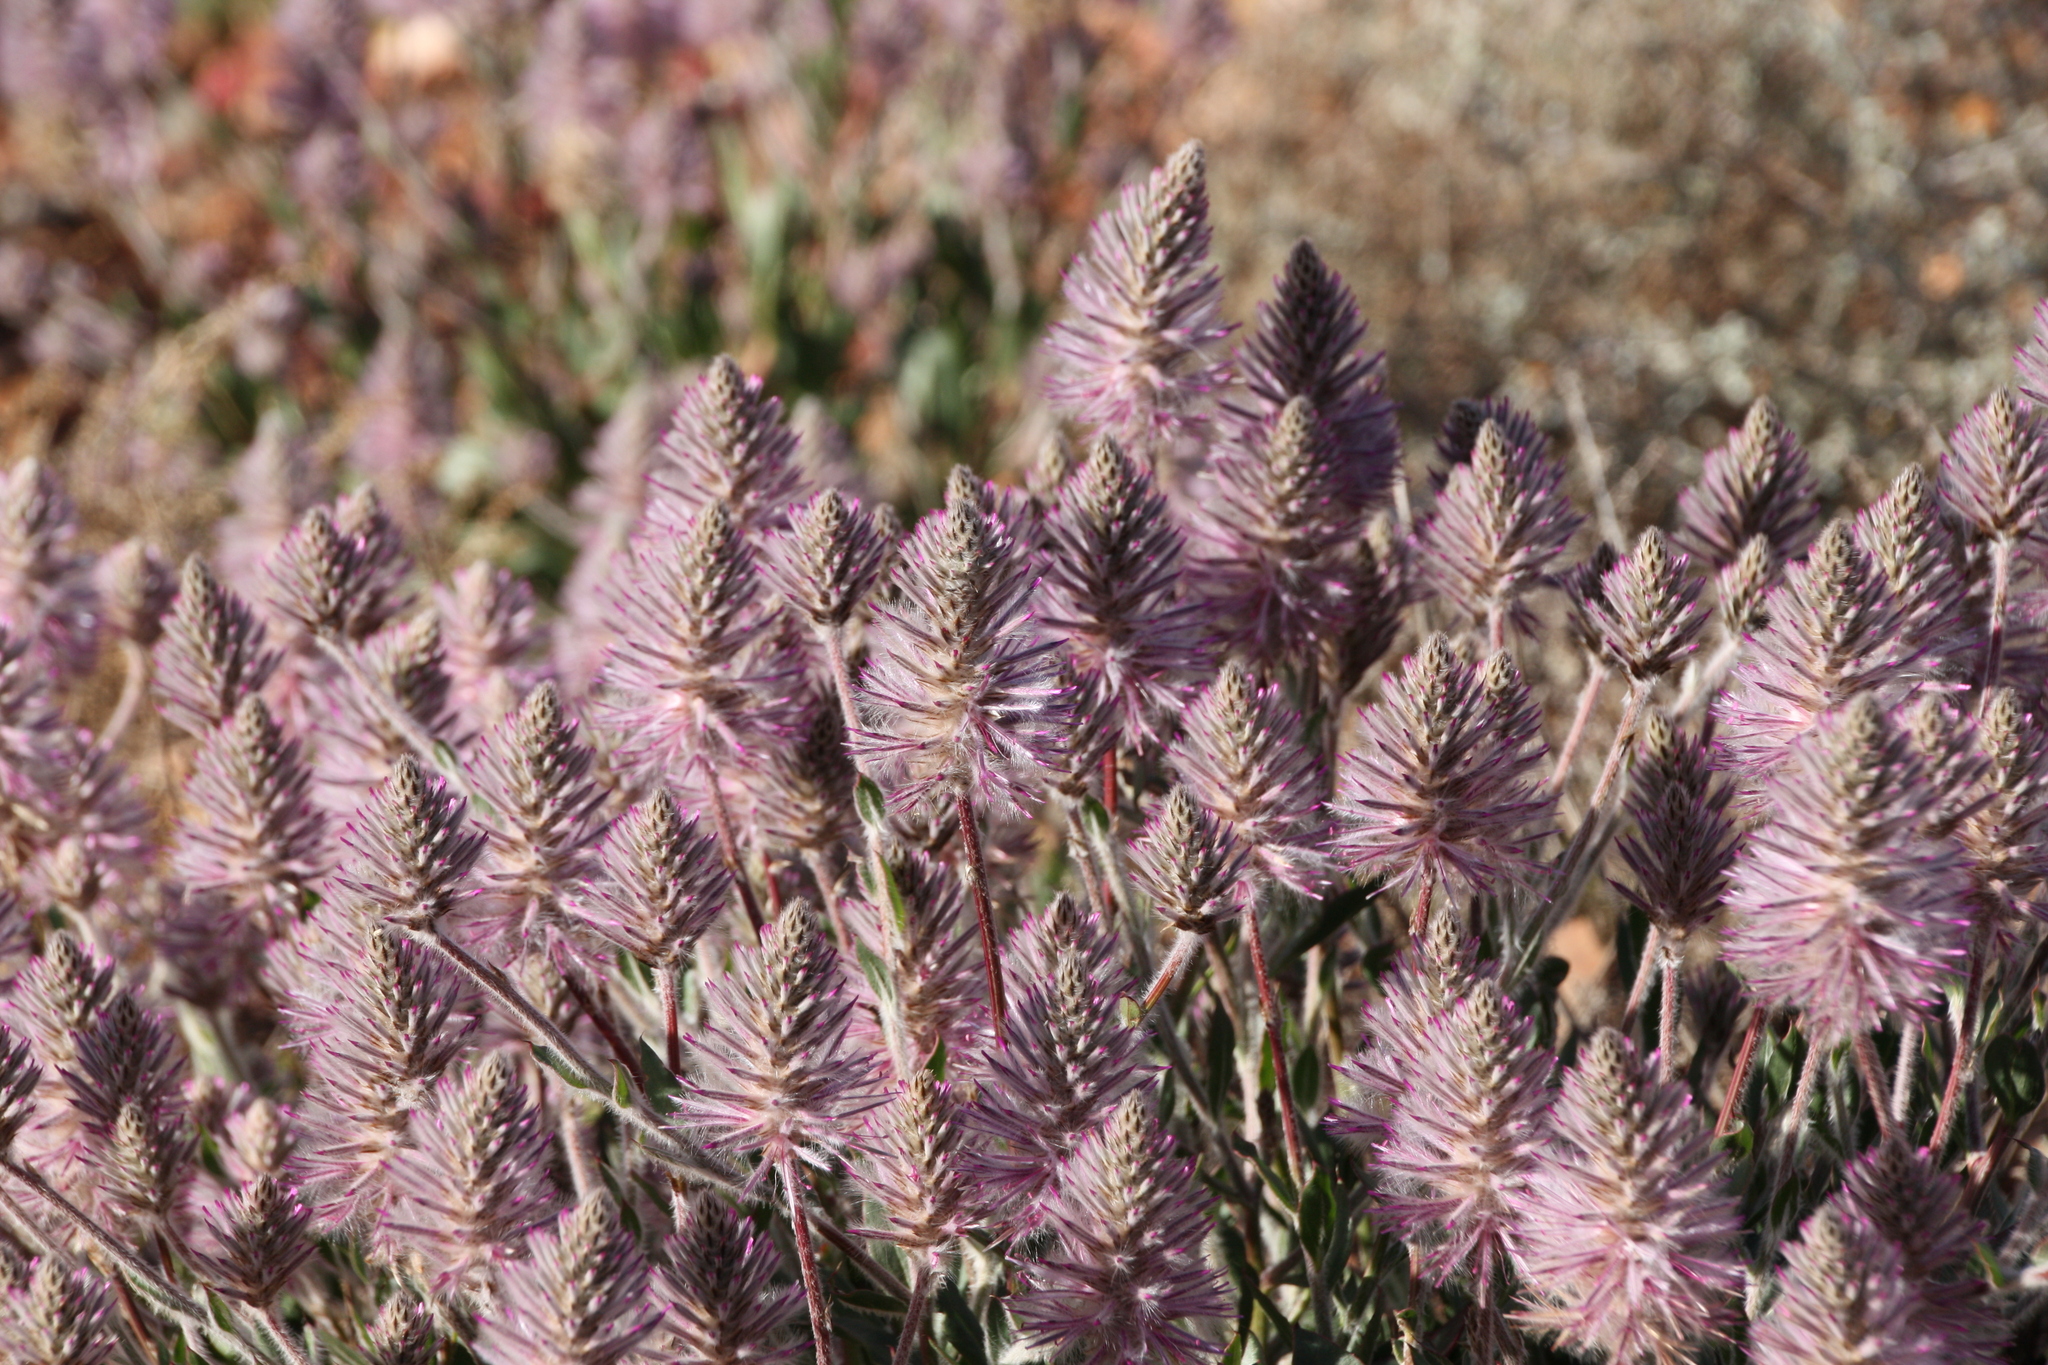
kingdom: Plantae
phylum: Tracheophyta
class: Magnoliopsida
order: Caryophyllales
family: Amaranthaceae
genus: Ptilotus
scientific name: Ptilotus exaltatus
